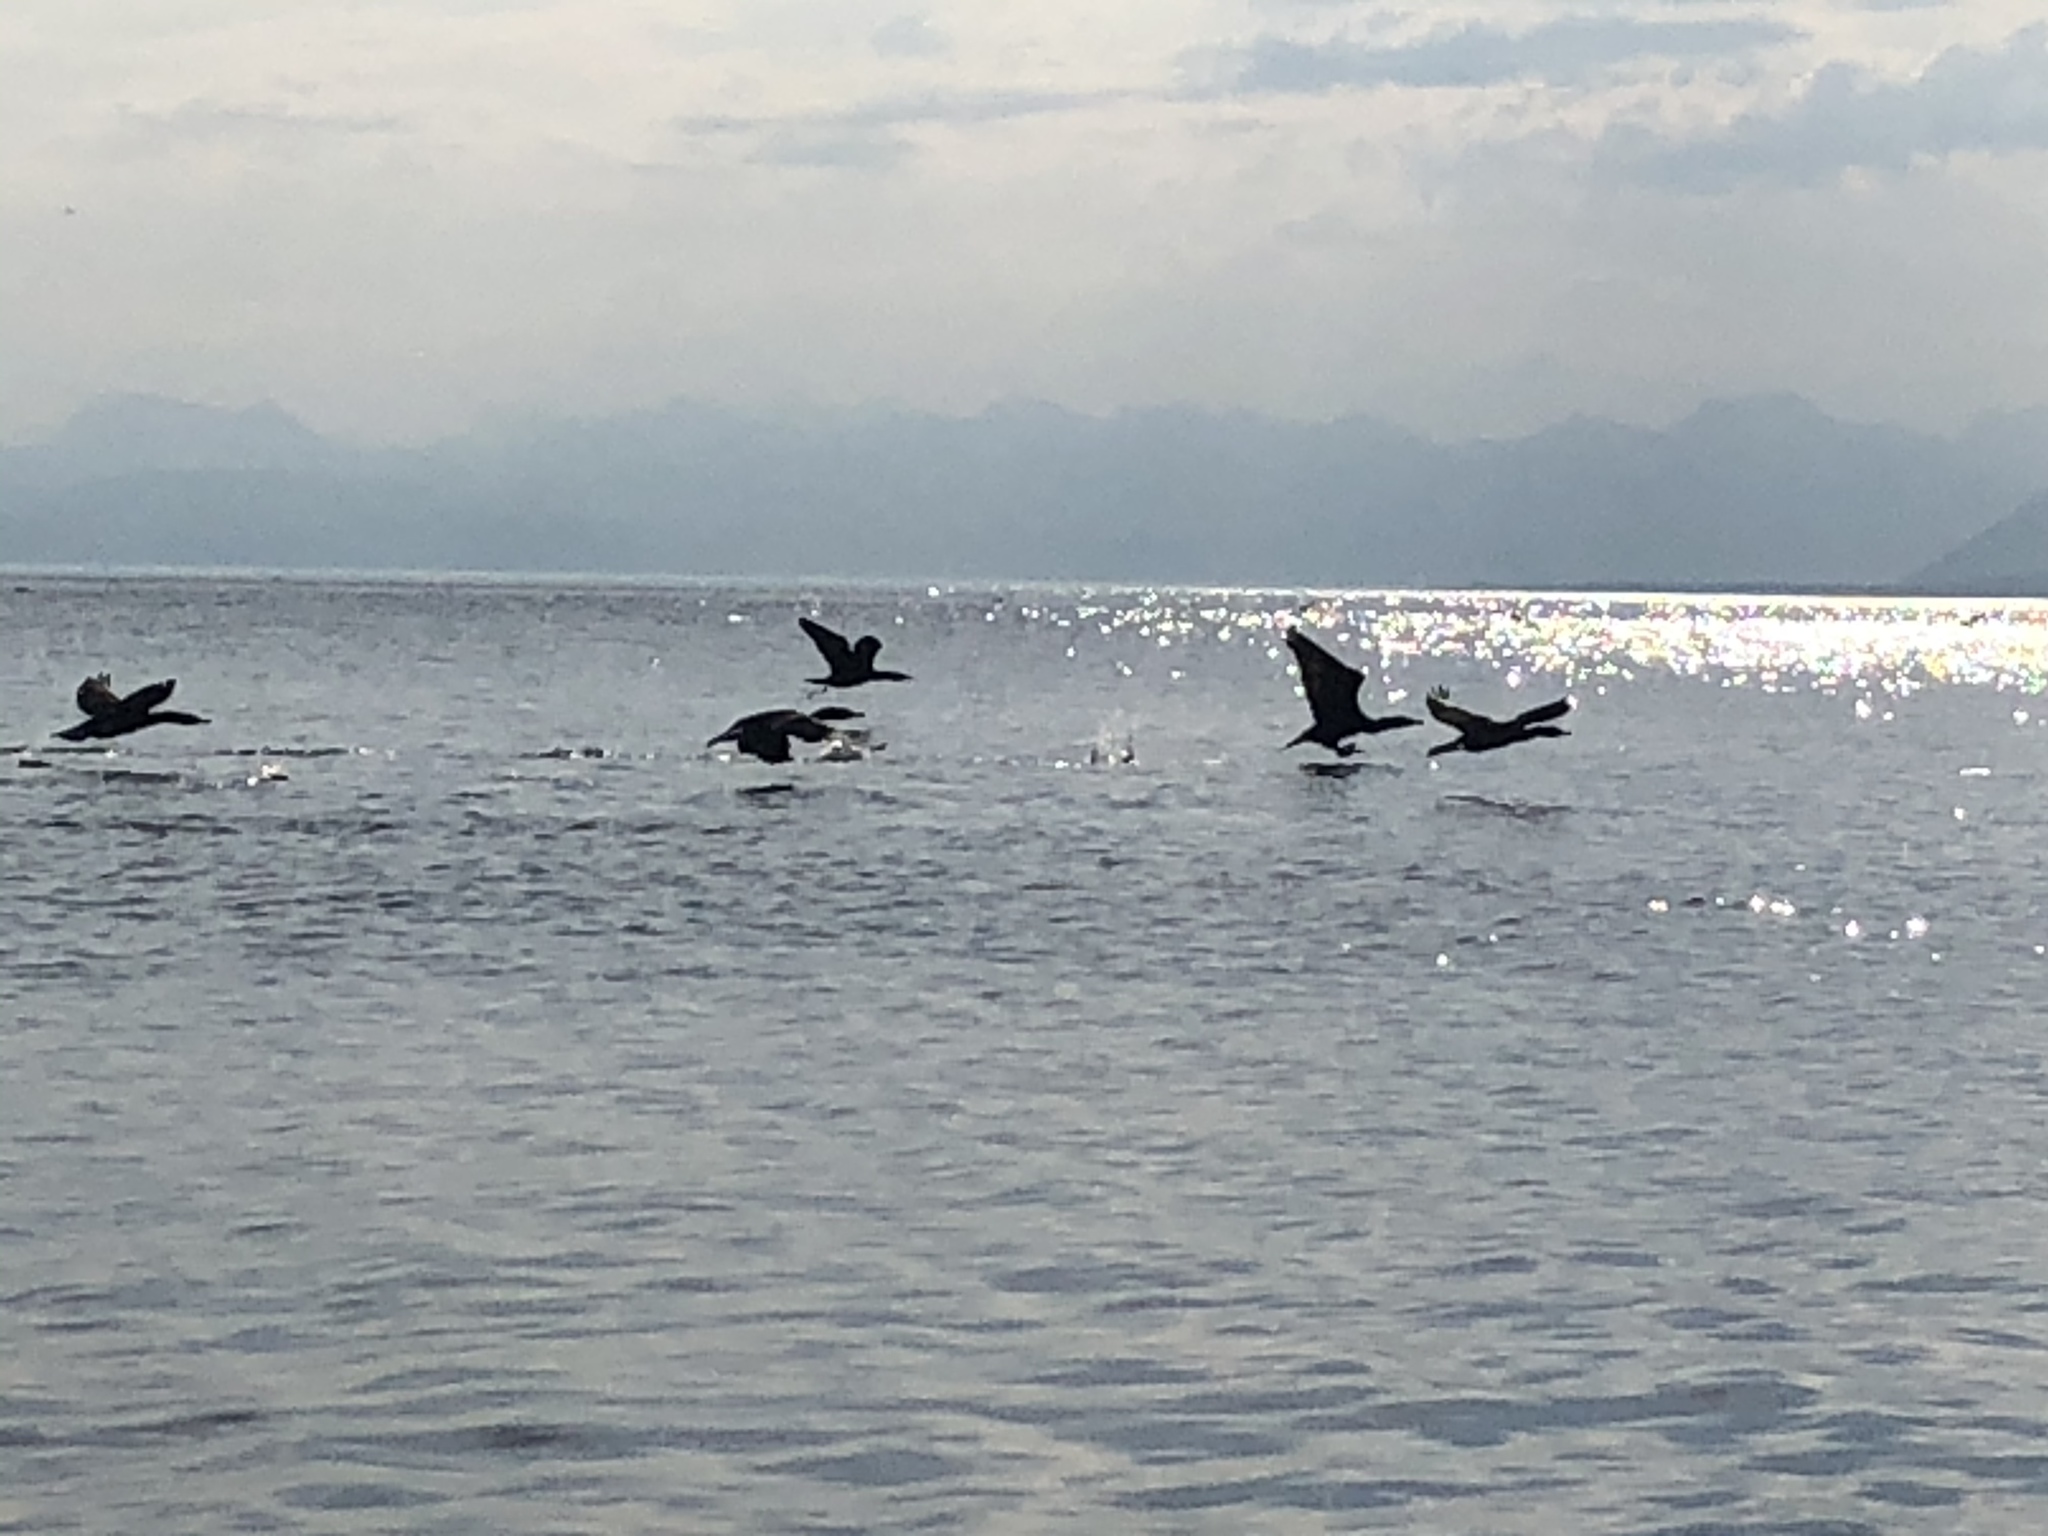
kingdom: Animalia
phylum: Chordata
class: Aves
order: Suliformes
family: Phalacrocoracidae
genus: Phalacrocorax
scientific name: Phalacrocorax carbo
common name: Great cormorant
